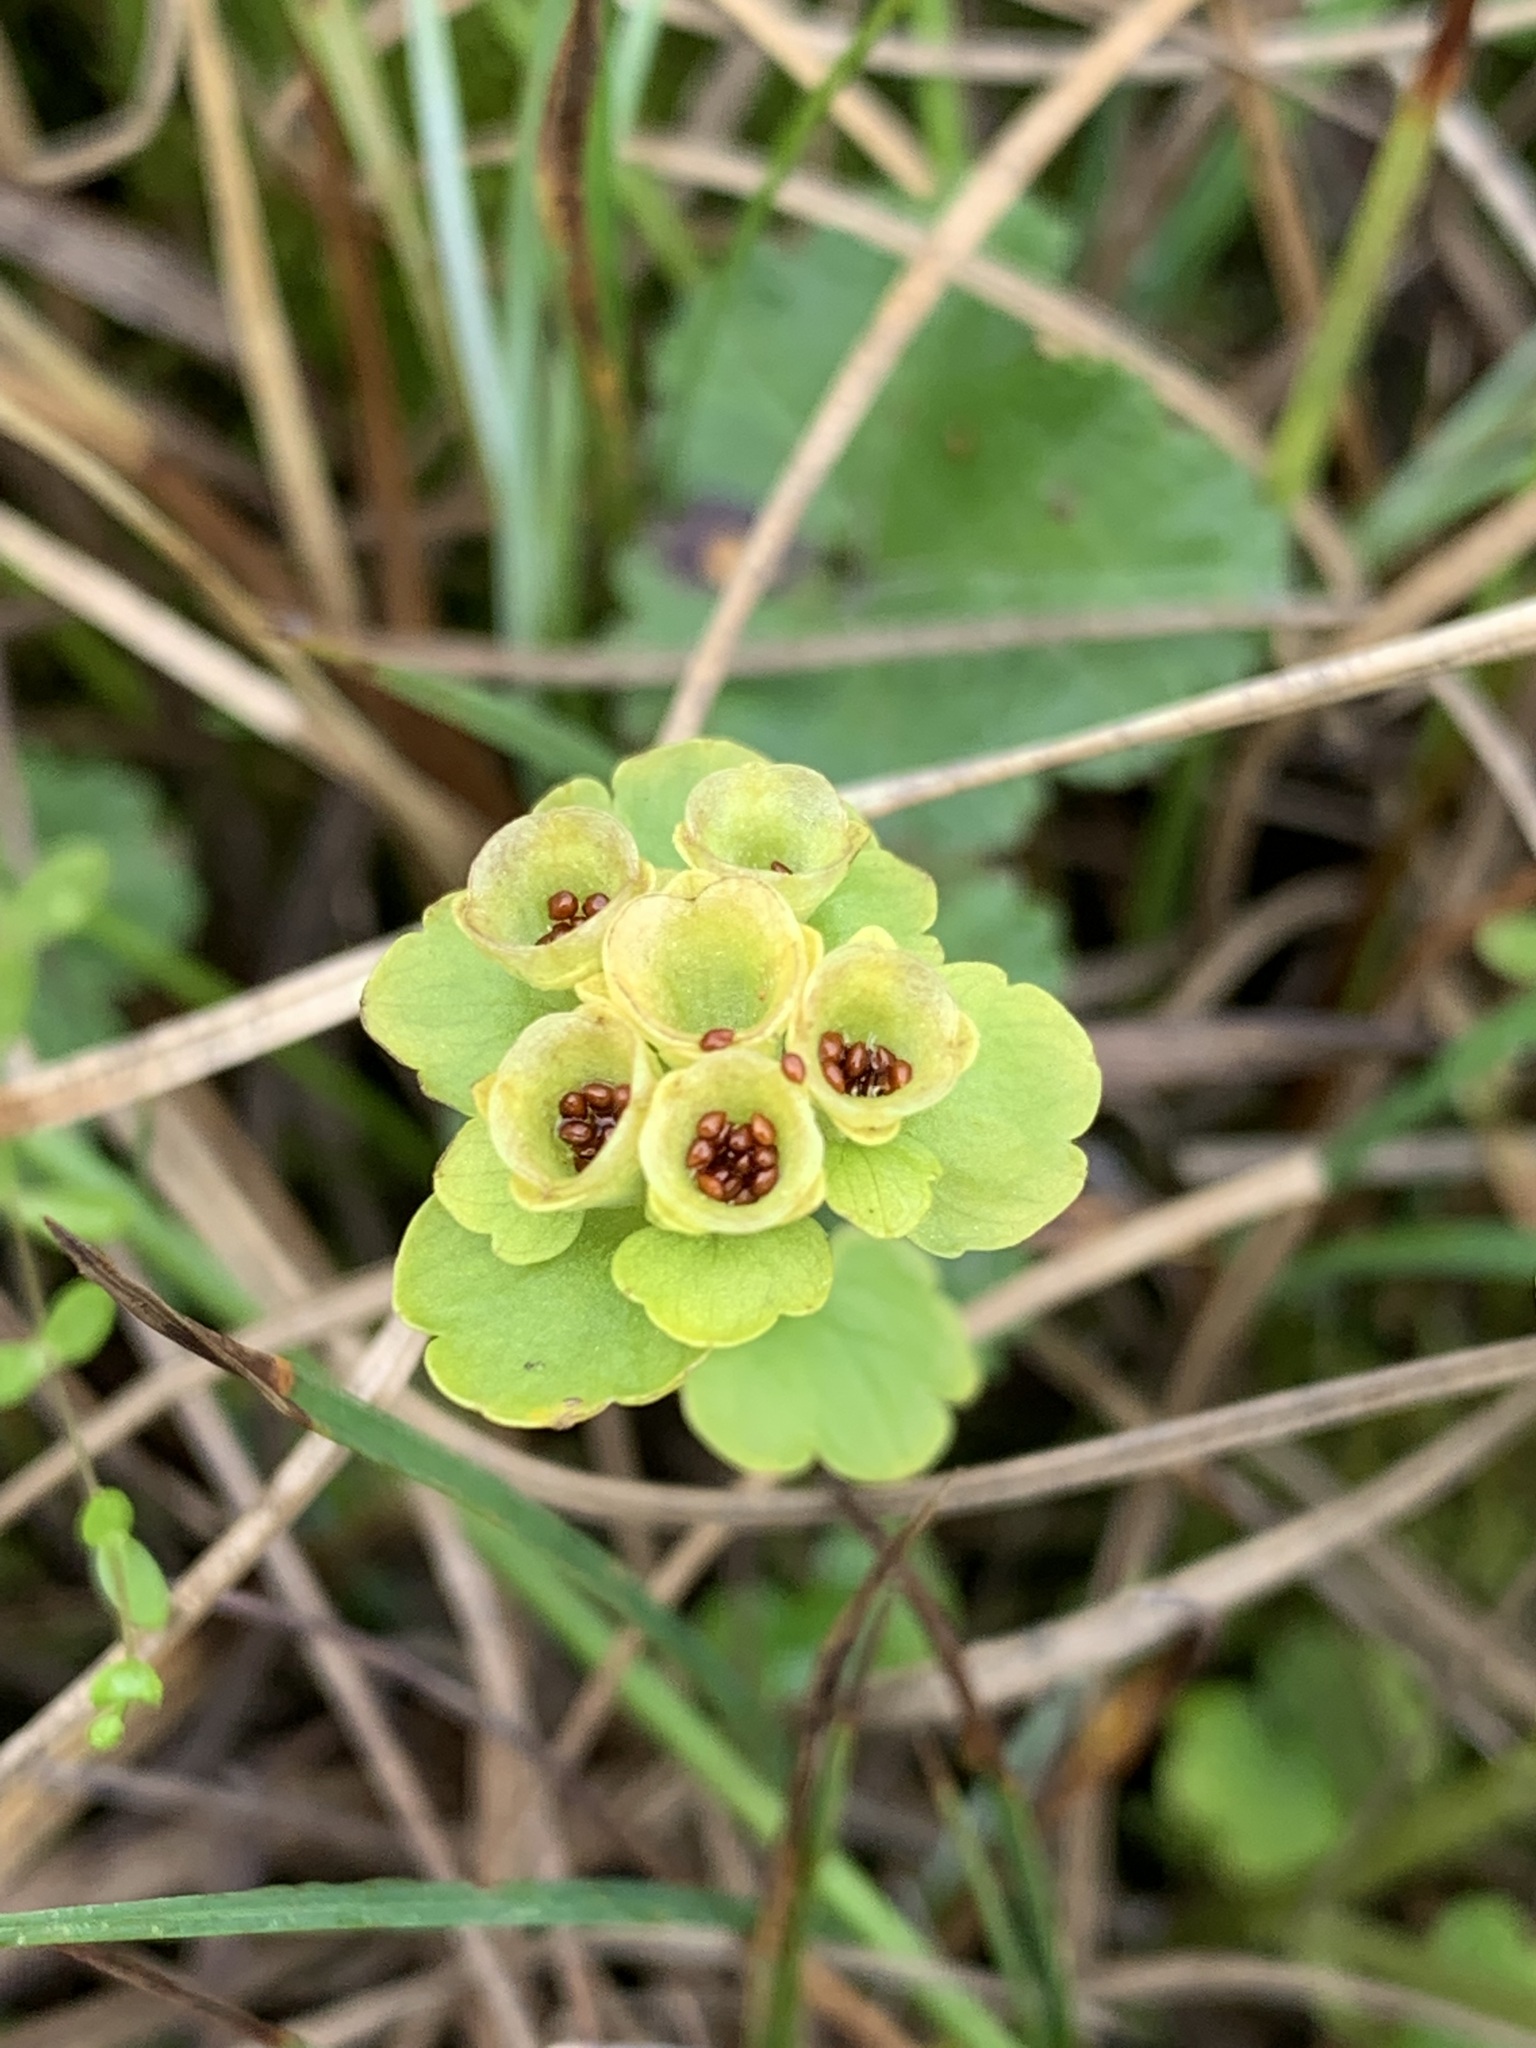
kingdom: Plantae
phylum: Tracheophyta
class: Magnoliopsida
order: Saxifragales
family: Saxifragaceae
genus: Chrysosplenium
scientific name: Chrysosplenium tetrandrum
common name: Green saxifrage
